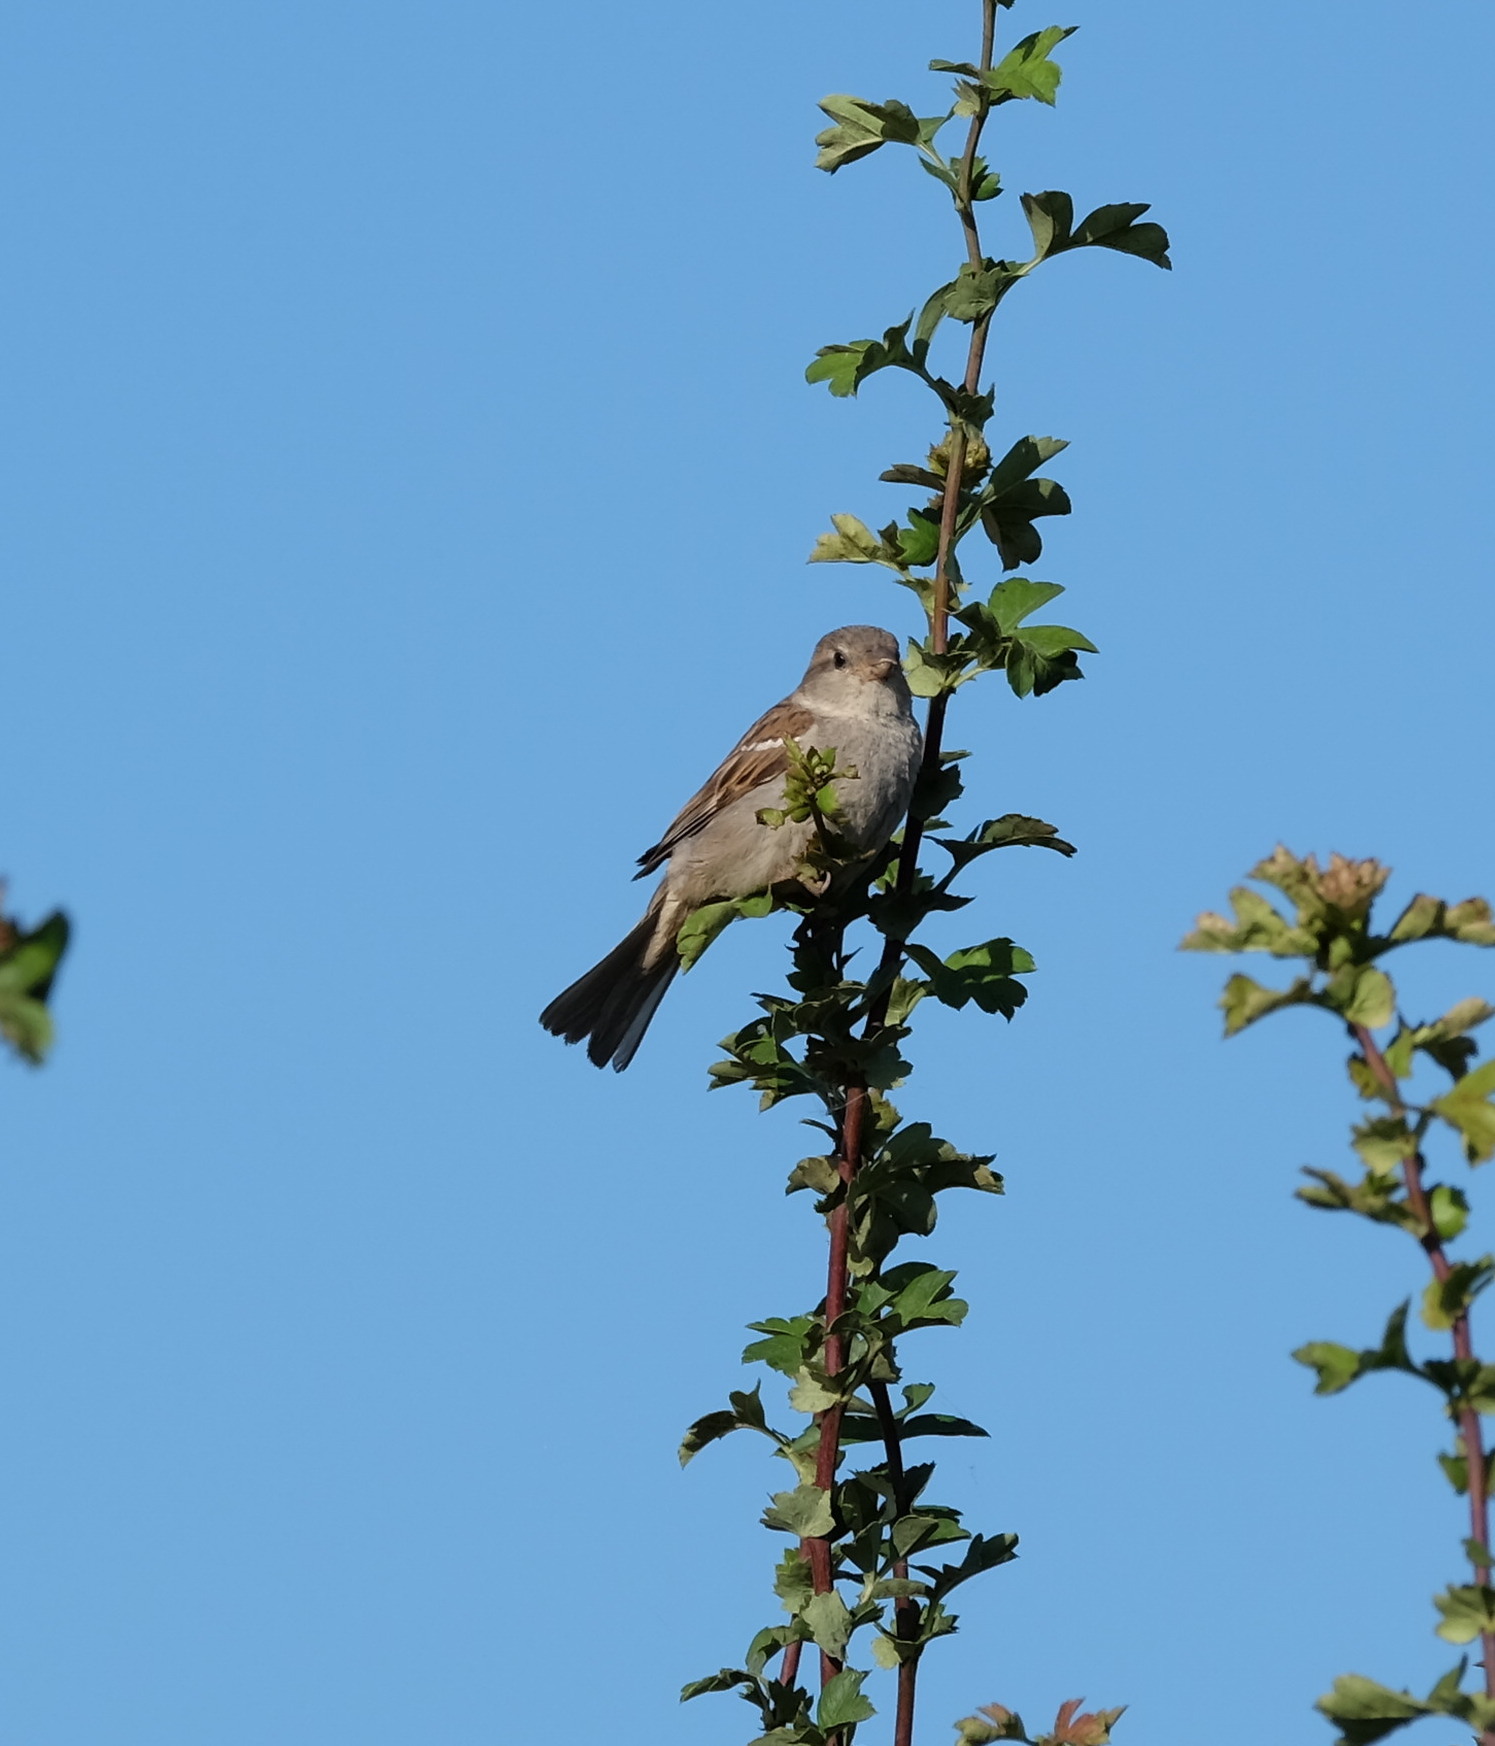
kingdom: Animalia
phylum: Chordata
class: Aves
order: Passeriformes
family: Passeridae
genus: Passer
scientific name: Passer domesticus
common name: House sparrow
